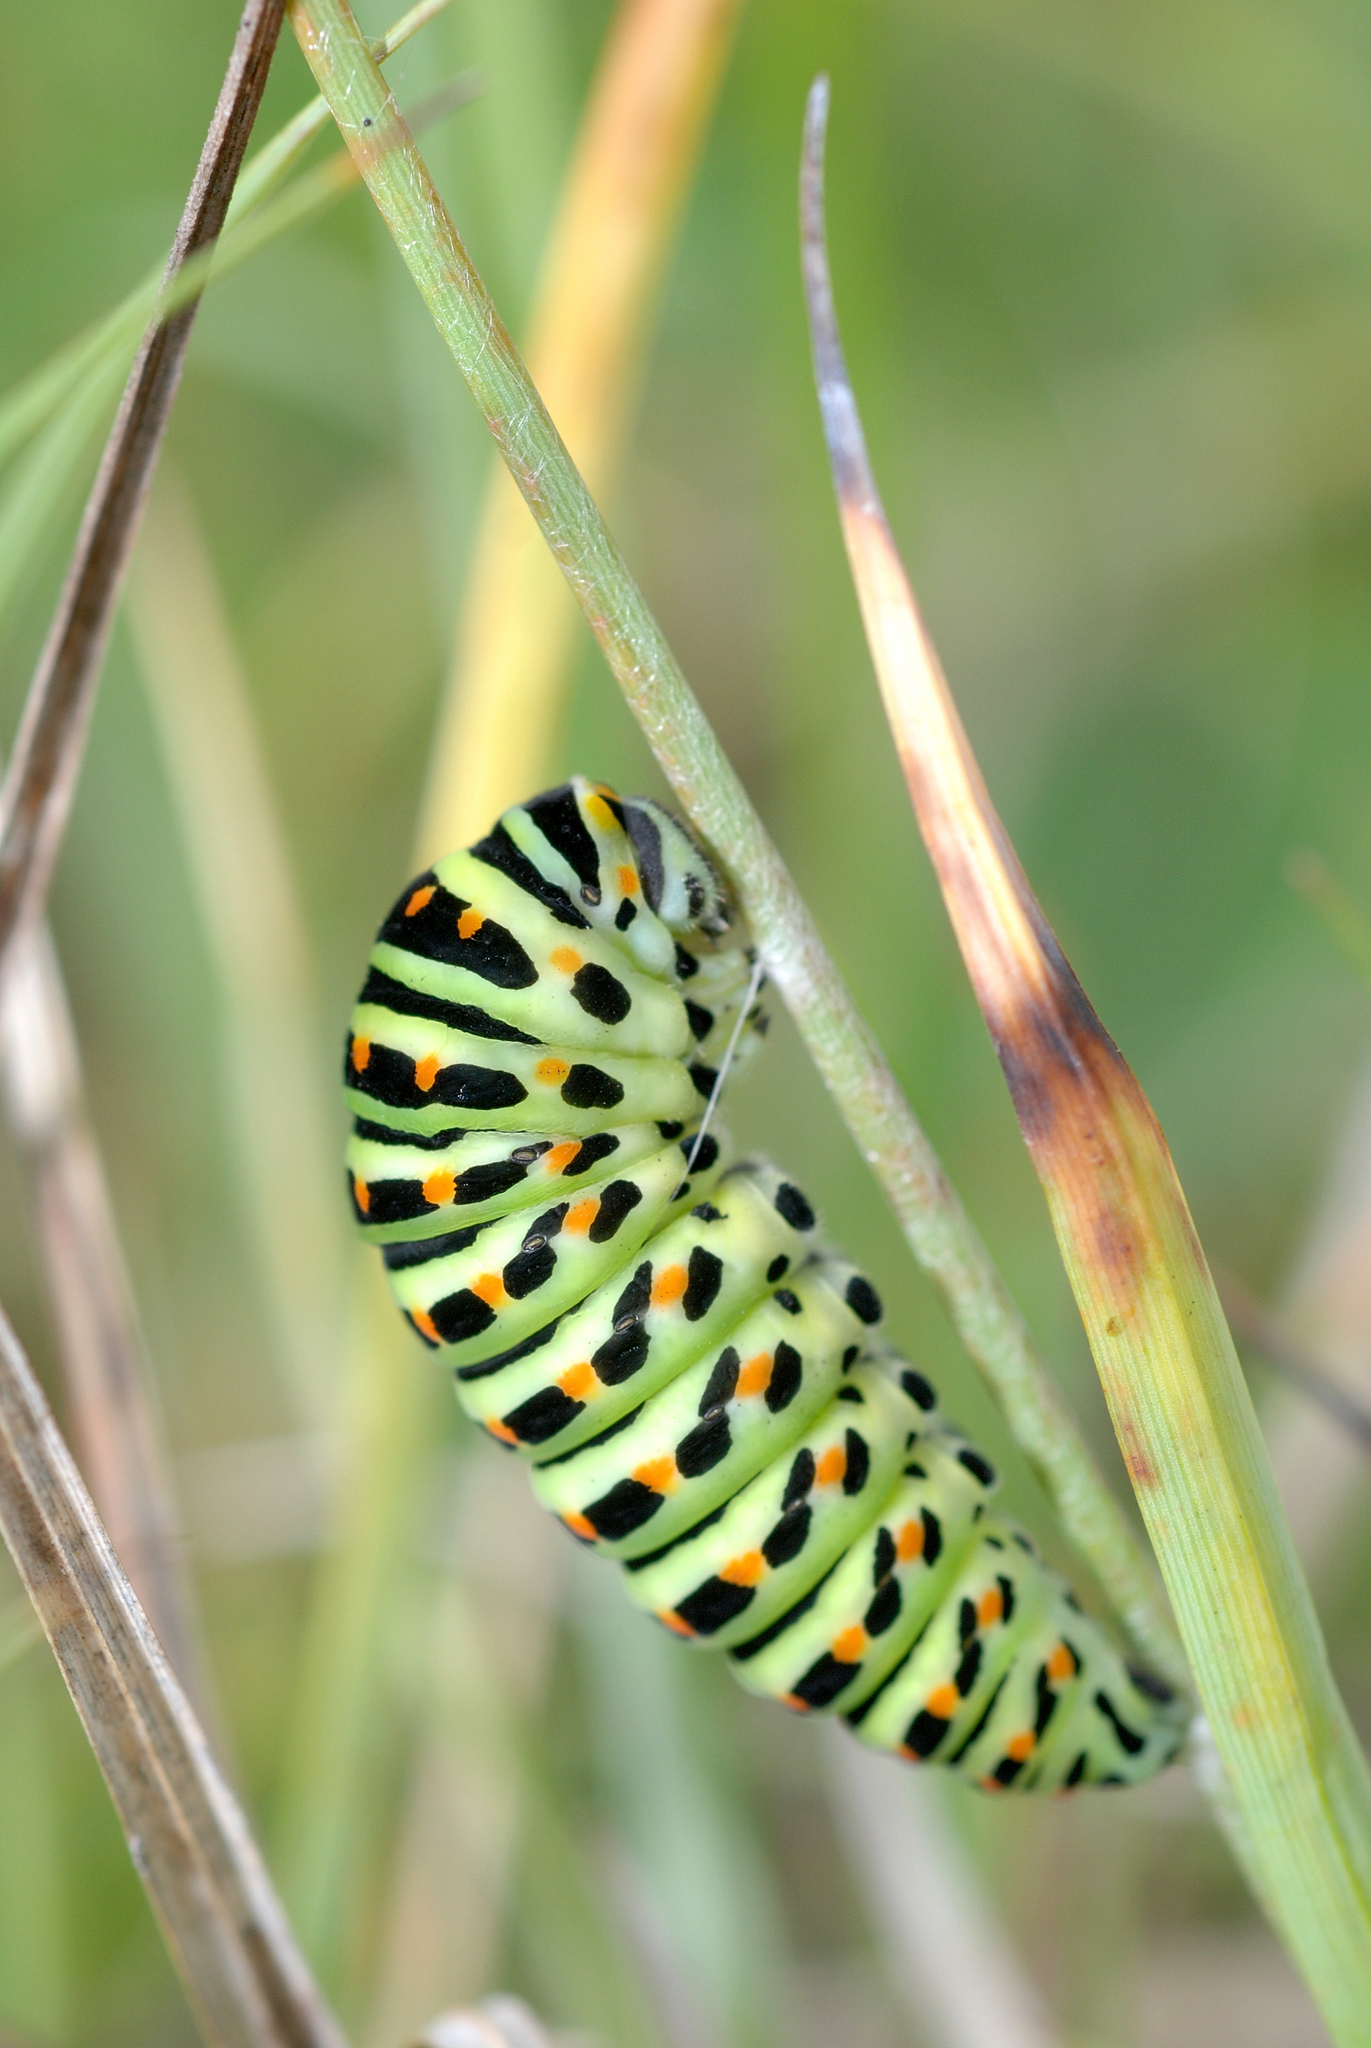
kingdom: Animalia
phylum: Arthropoda
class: Insecta
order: Lepidoptera
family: Papilionidae
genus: Papilio
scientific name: Papilio machaon
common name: Swallowtail
